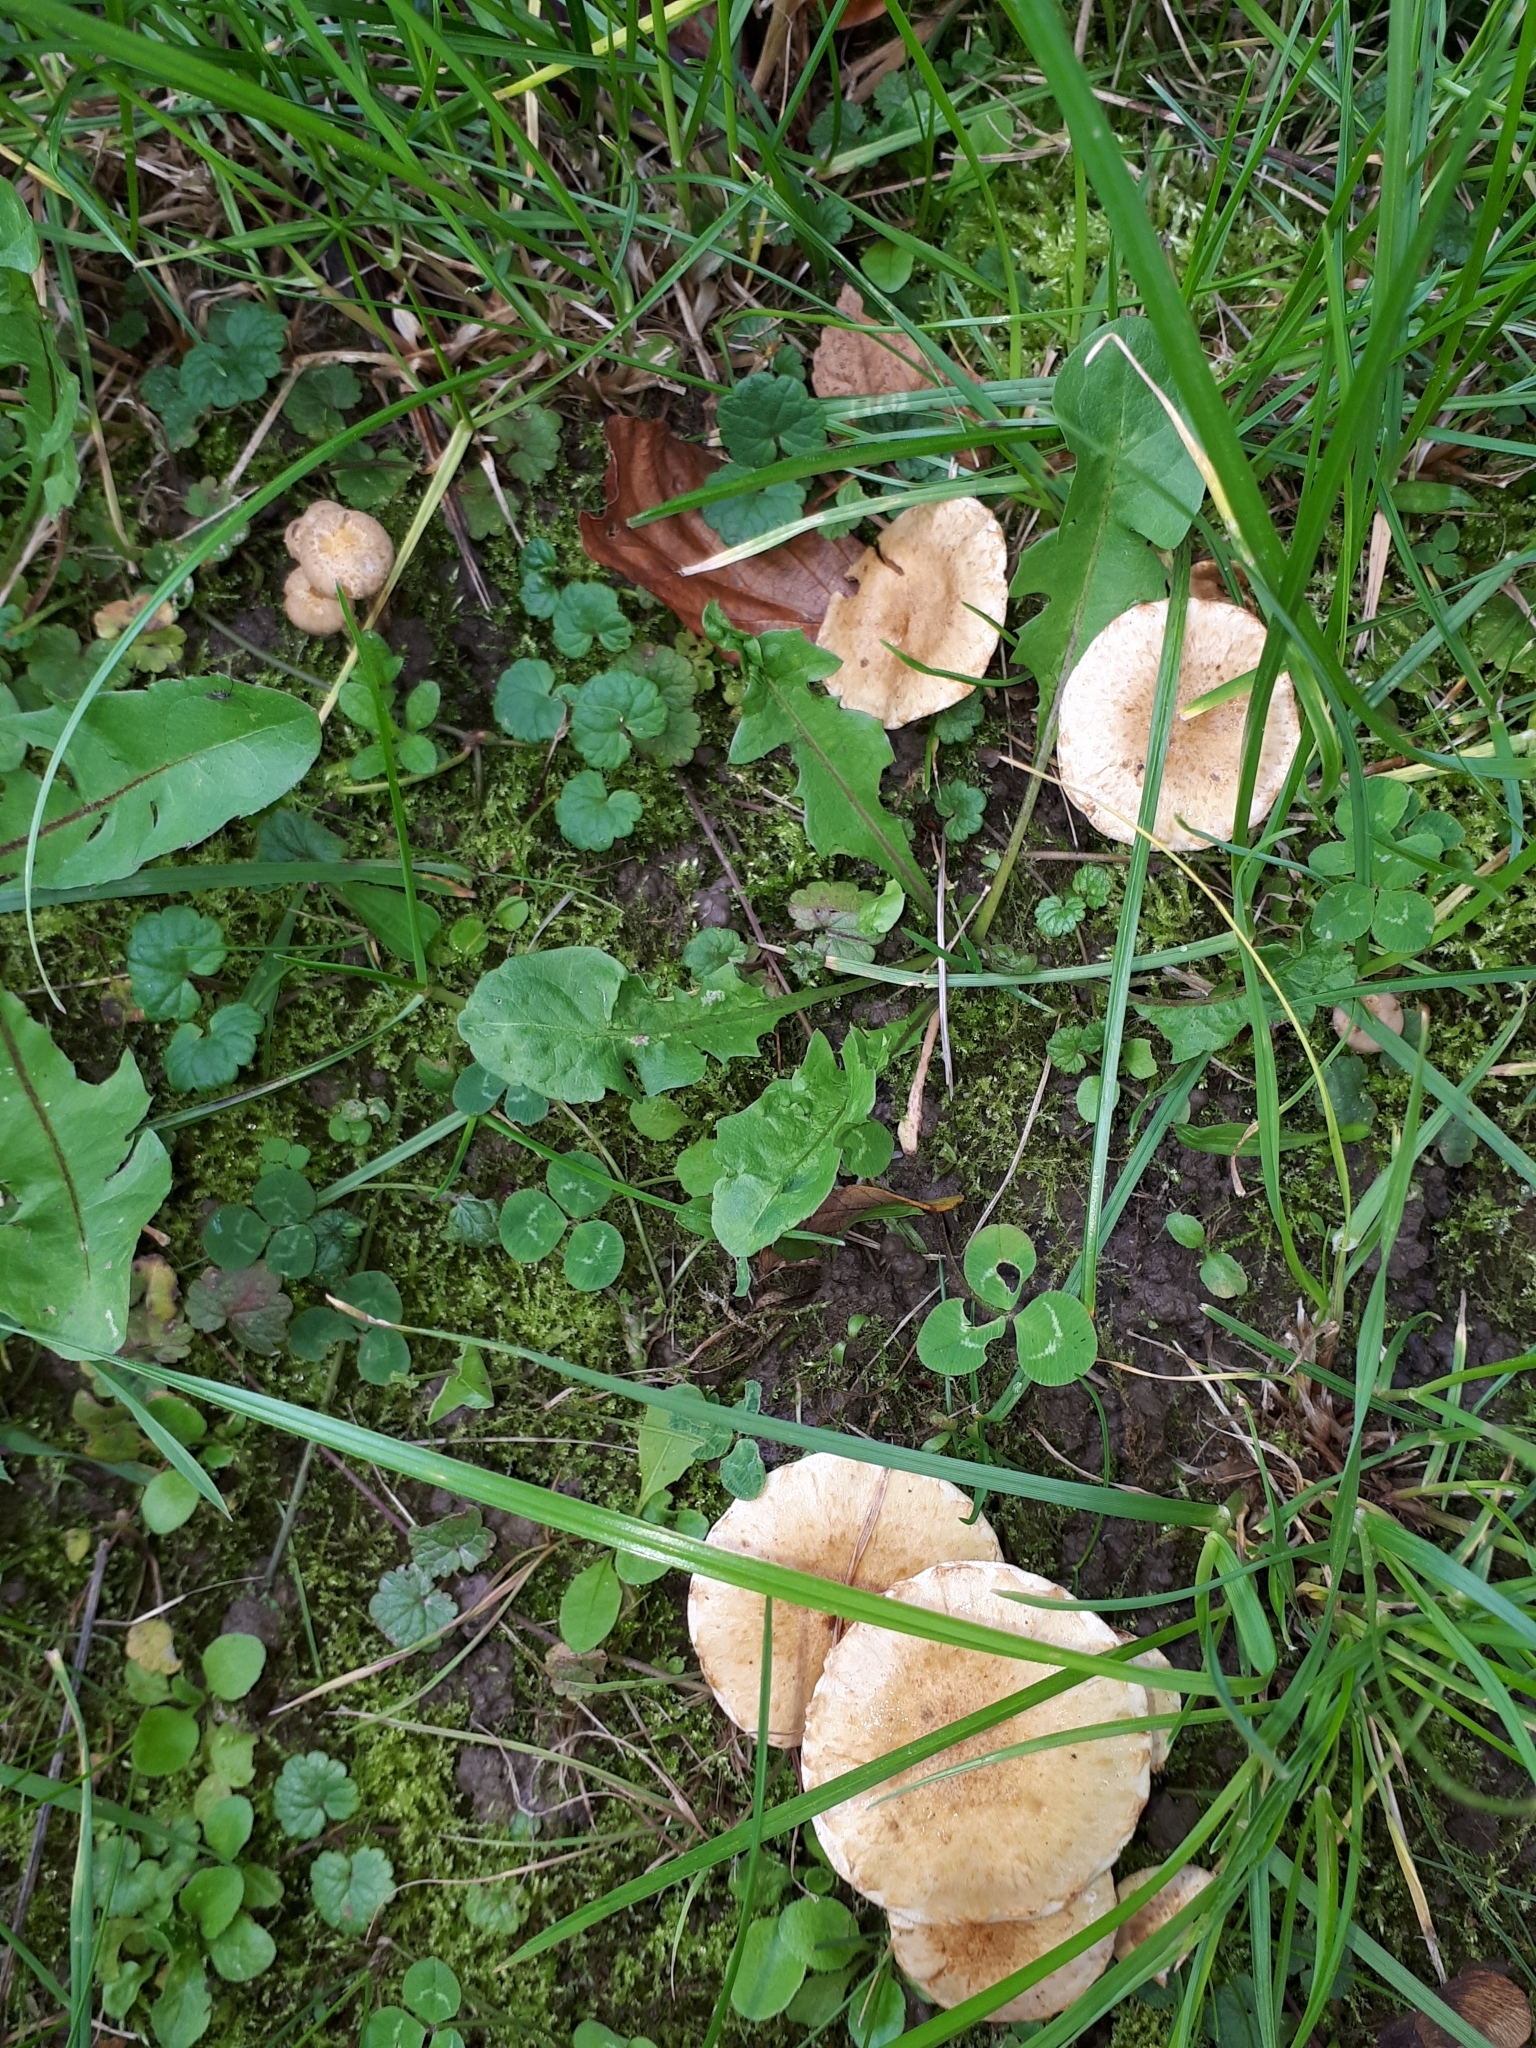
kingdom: Fungi
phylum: Basidiomycota
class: Agaricomycetes
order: Agaricales
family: Strophariaceae
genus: Pholiota
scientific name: Pholiota gummosa
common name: Sticky scalycap
